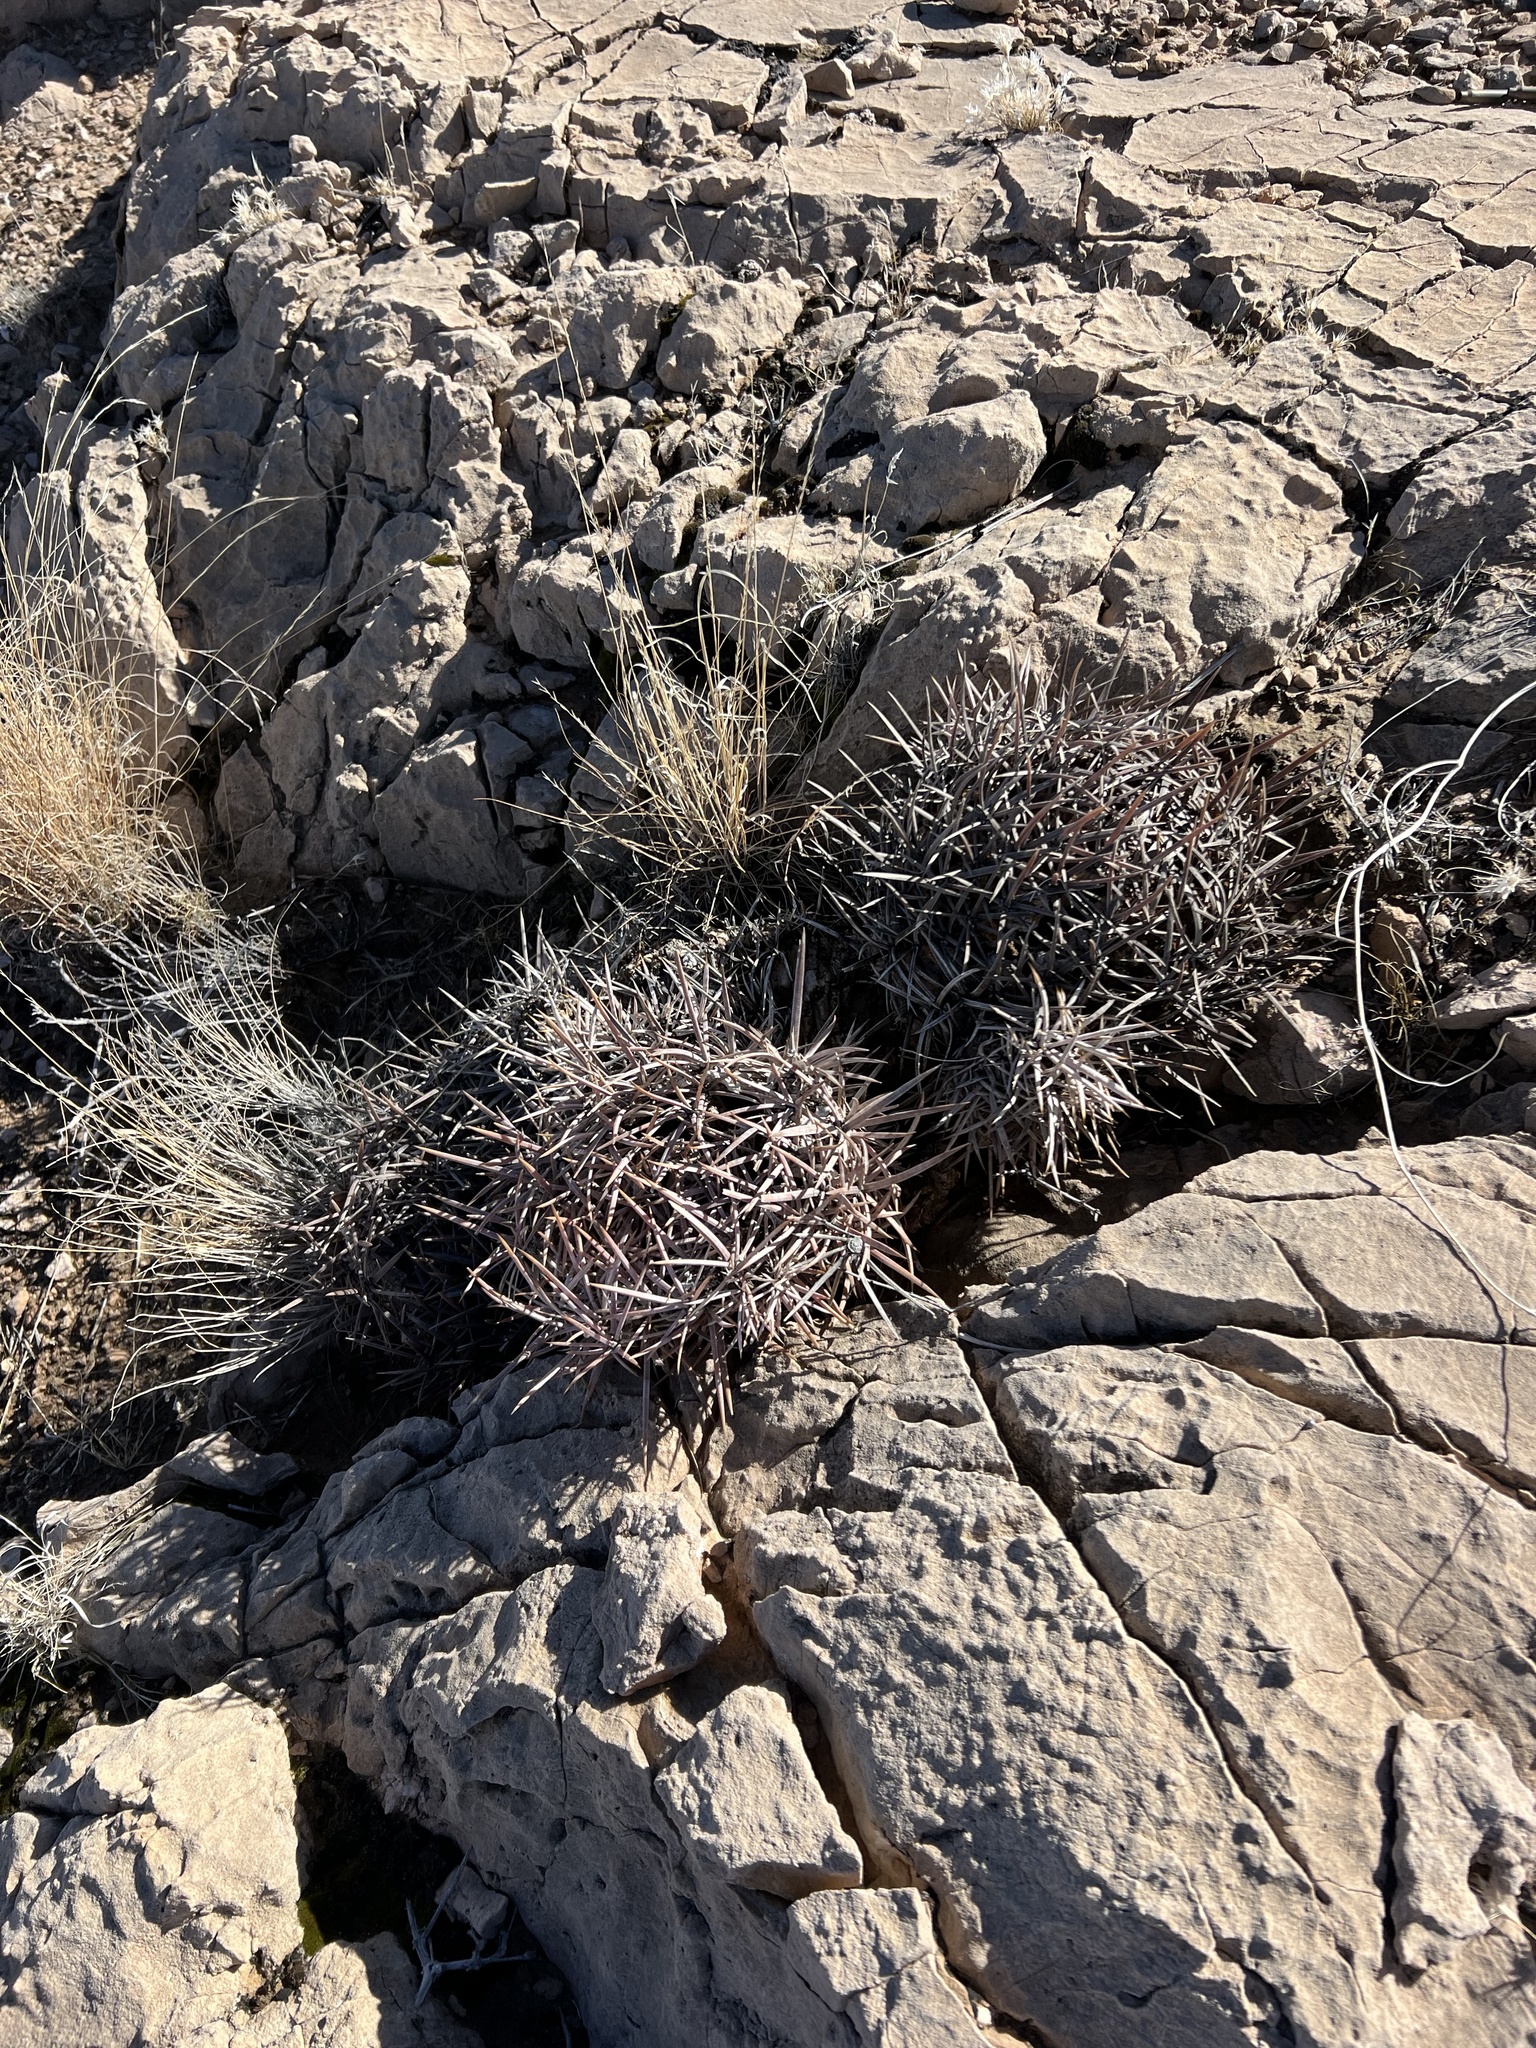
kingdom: Plantae
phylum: Tracheophyta
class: Magnoliopsida
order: Caryophyllales
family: Cactaceae
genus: Echinocactus
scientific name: Echinocactus polycephalus
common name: Cottontop cactus
